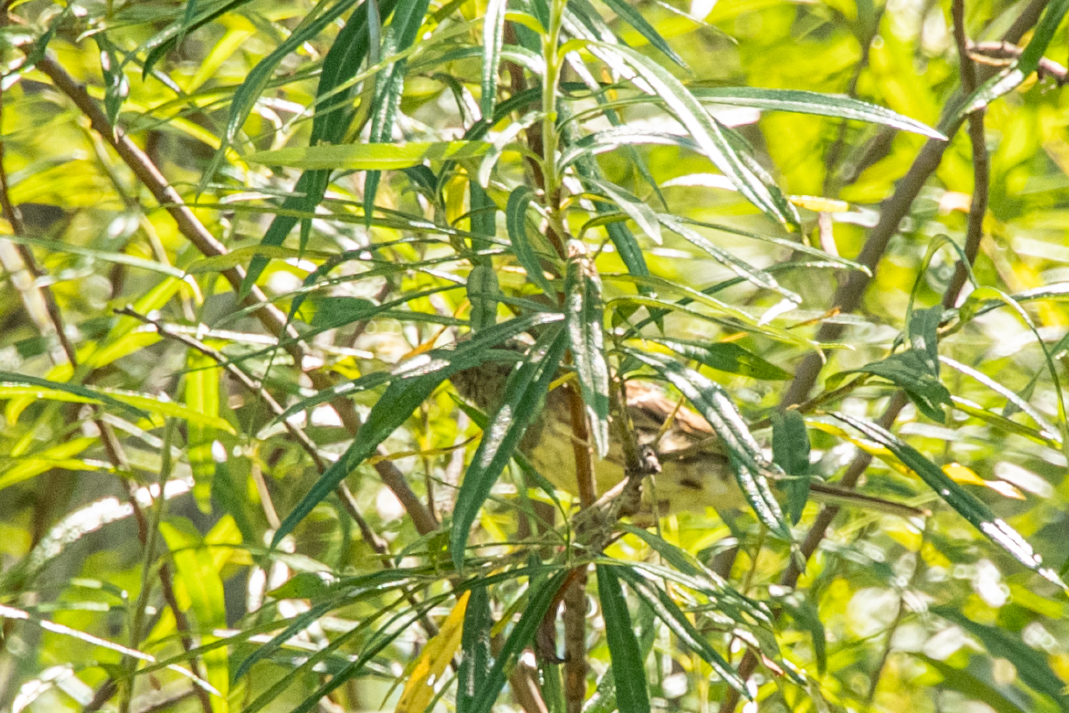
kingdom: Animalia
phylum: Chordata
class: Aves
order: Passeriformes
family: Emberizidae
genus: Emberiza
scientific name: Emberiza spodocephala
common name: Black-faced bunting
